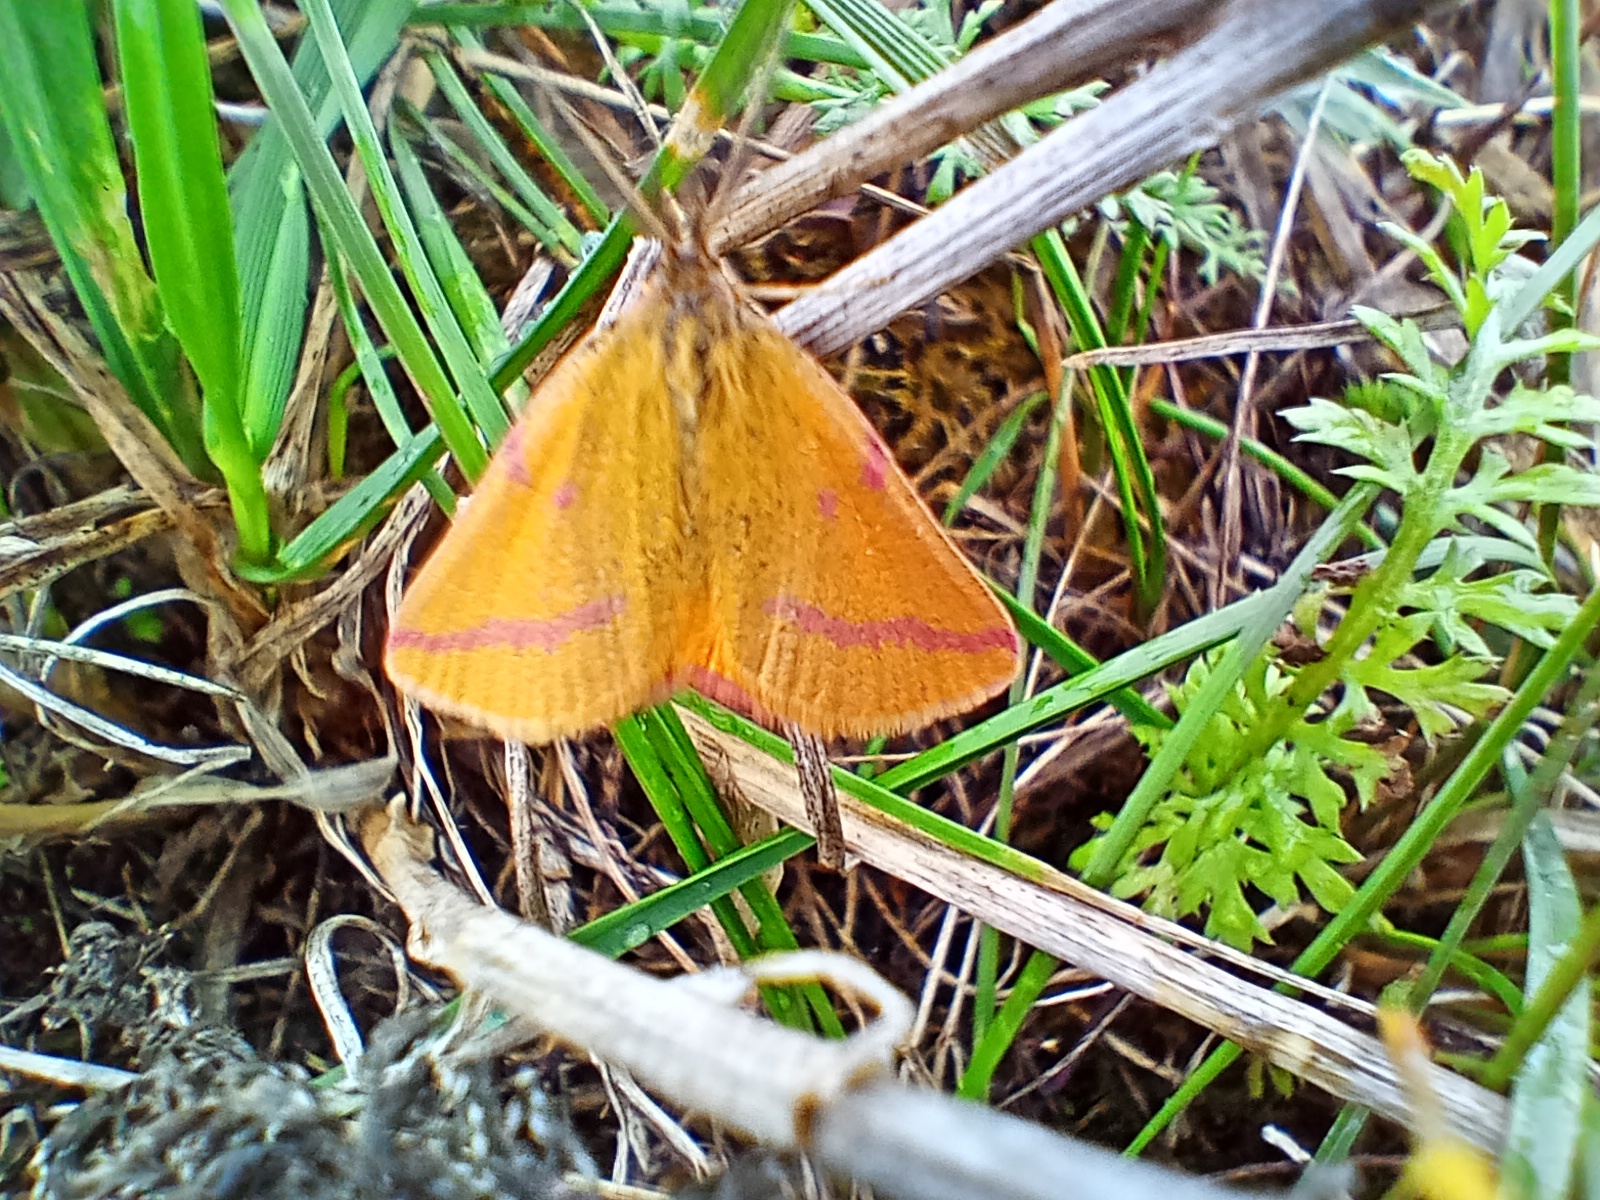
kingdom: Animalia
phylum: Arthropoda
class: Insecta
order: Lepidoptera
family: Geometridae
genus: Lythria
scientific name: Lythria purpuraria
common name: Purple-barred yellow
